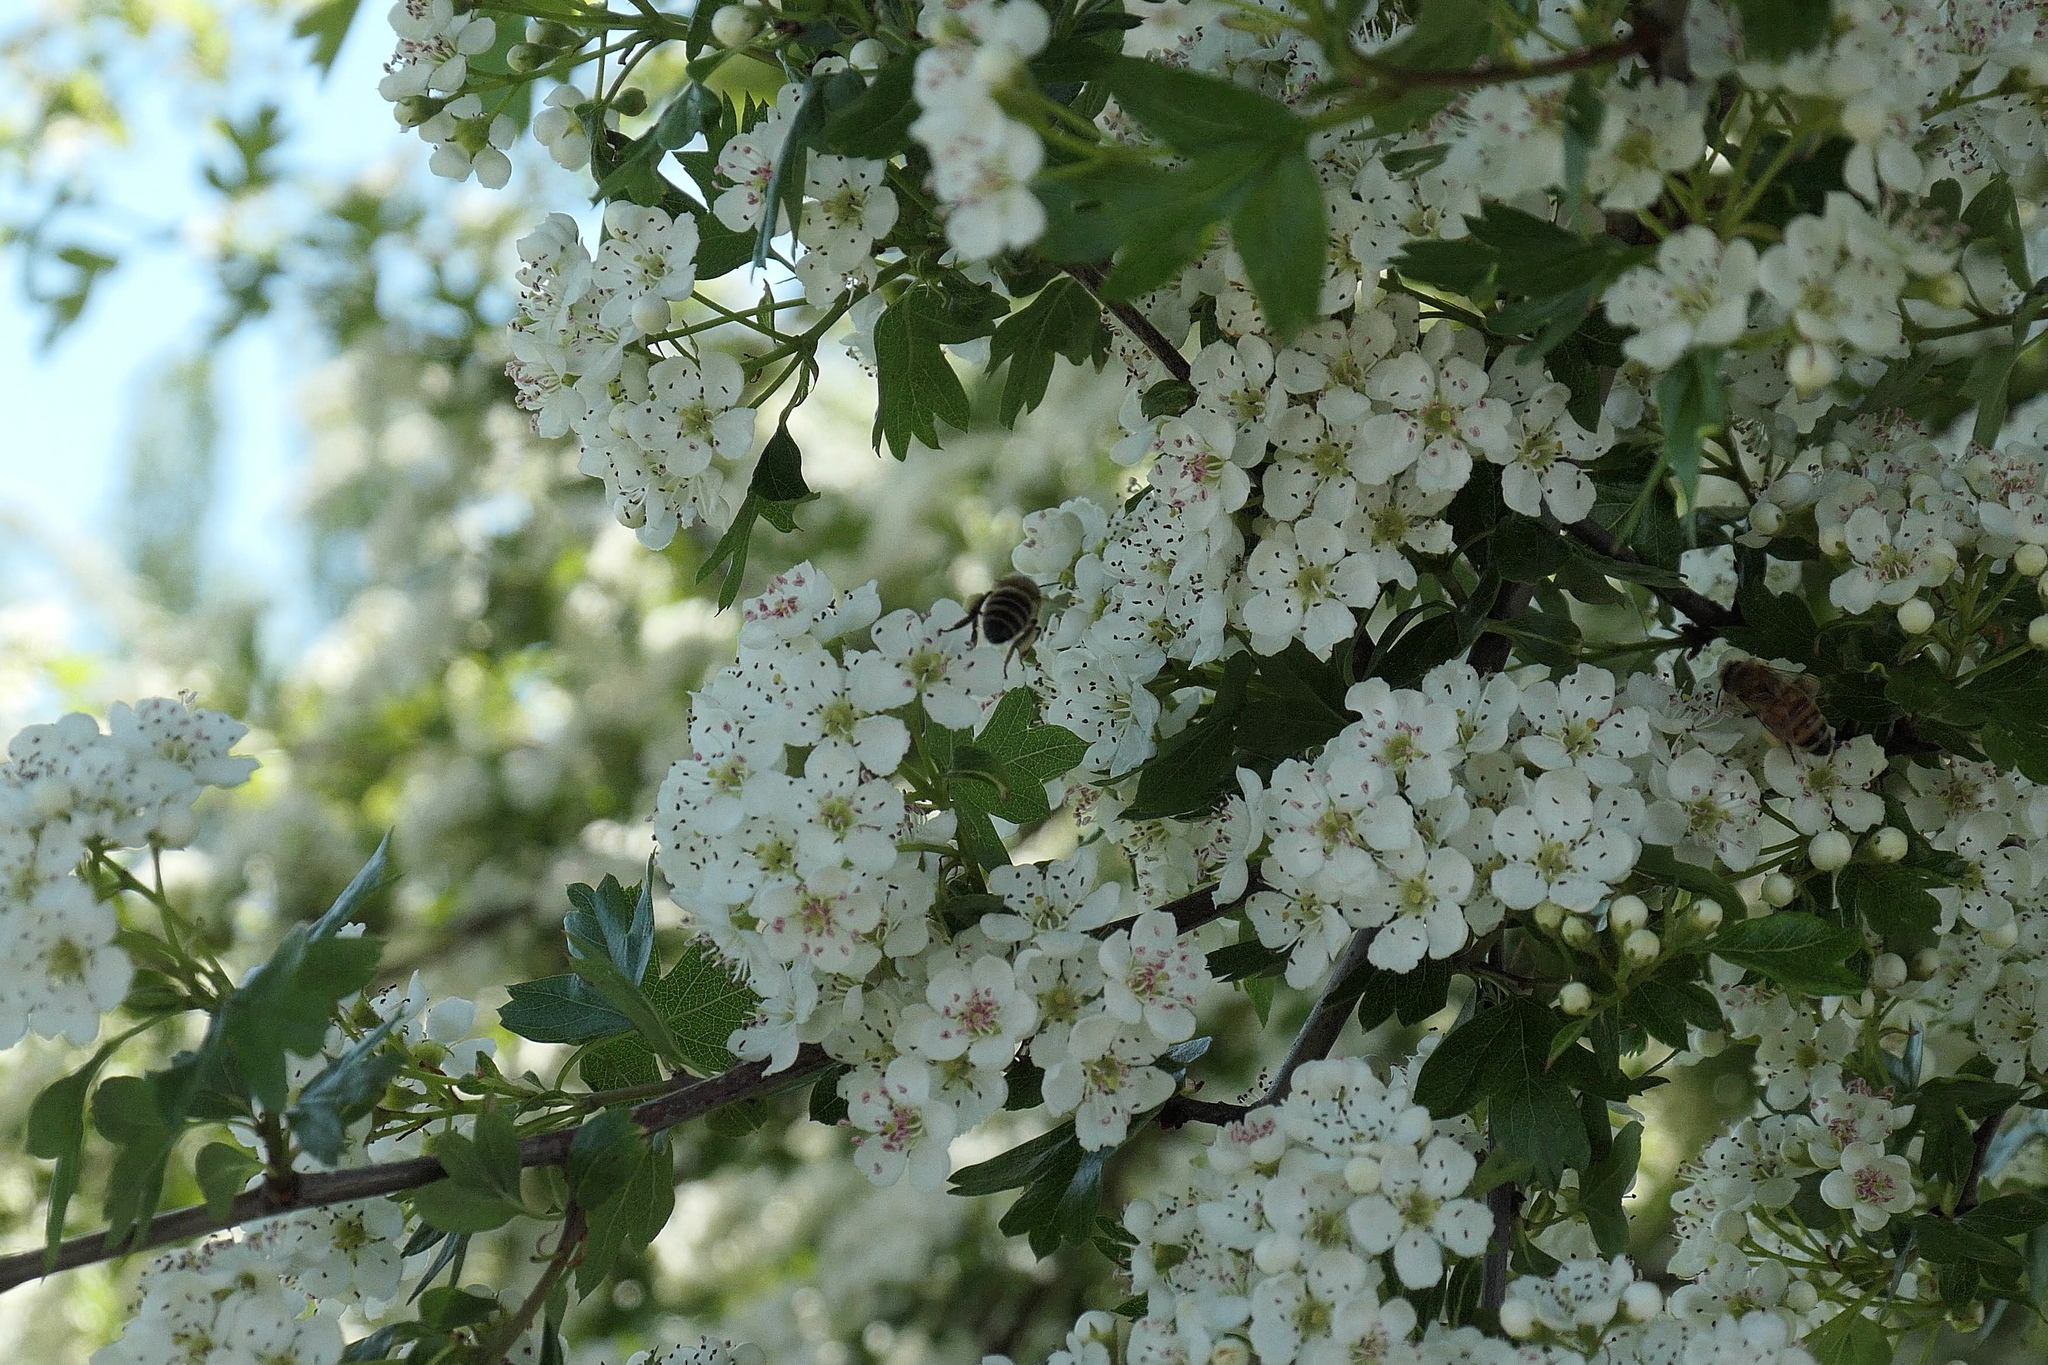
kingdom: Animalia
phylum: Arthropoda
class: Insecta
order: Hymenoptera
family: Apidae
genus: Apis
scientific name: Apis mellifera
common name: Honey bee
